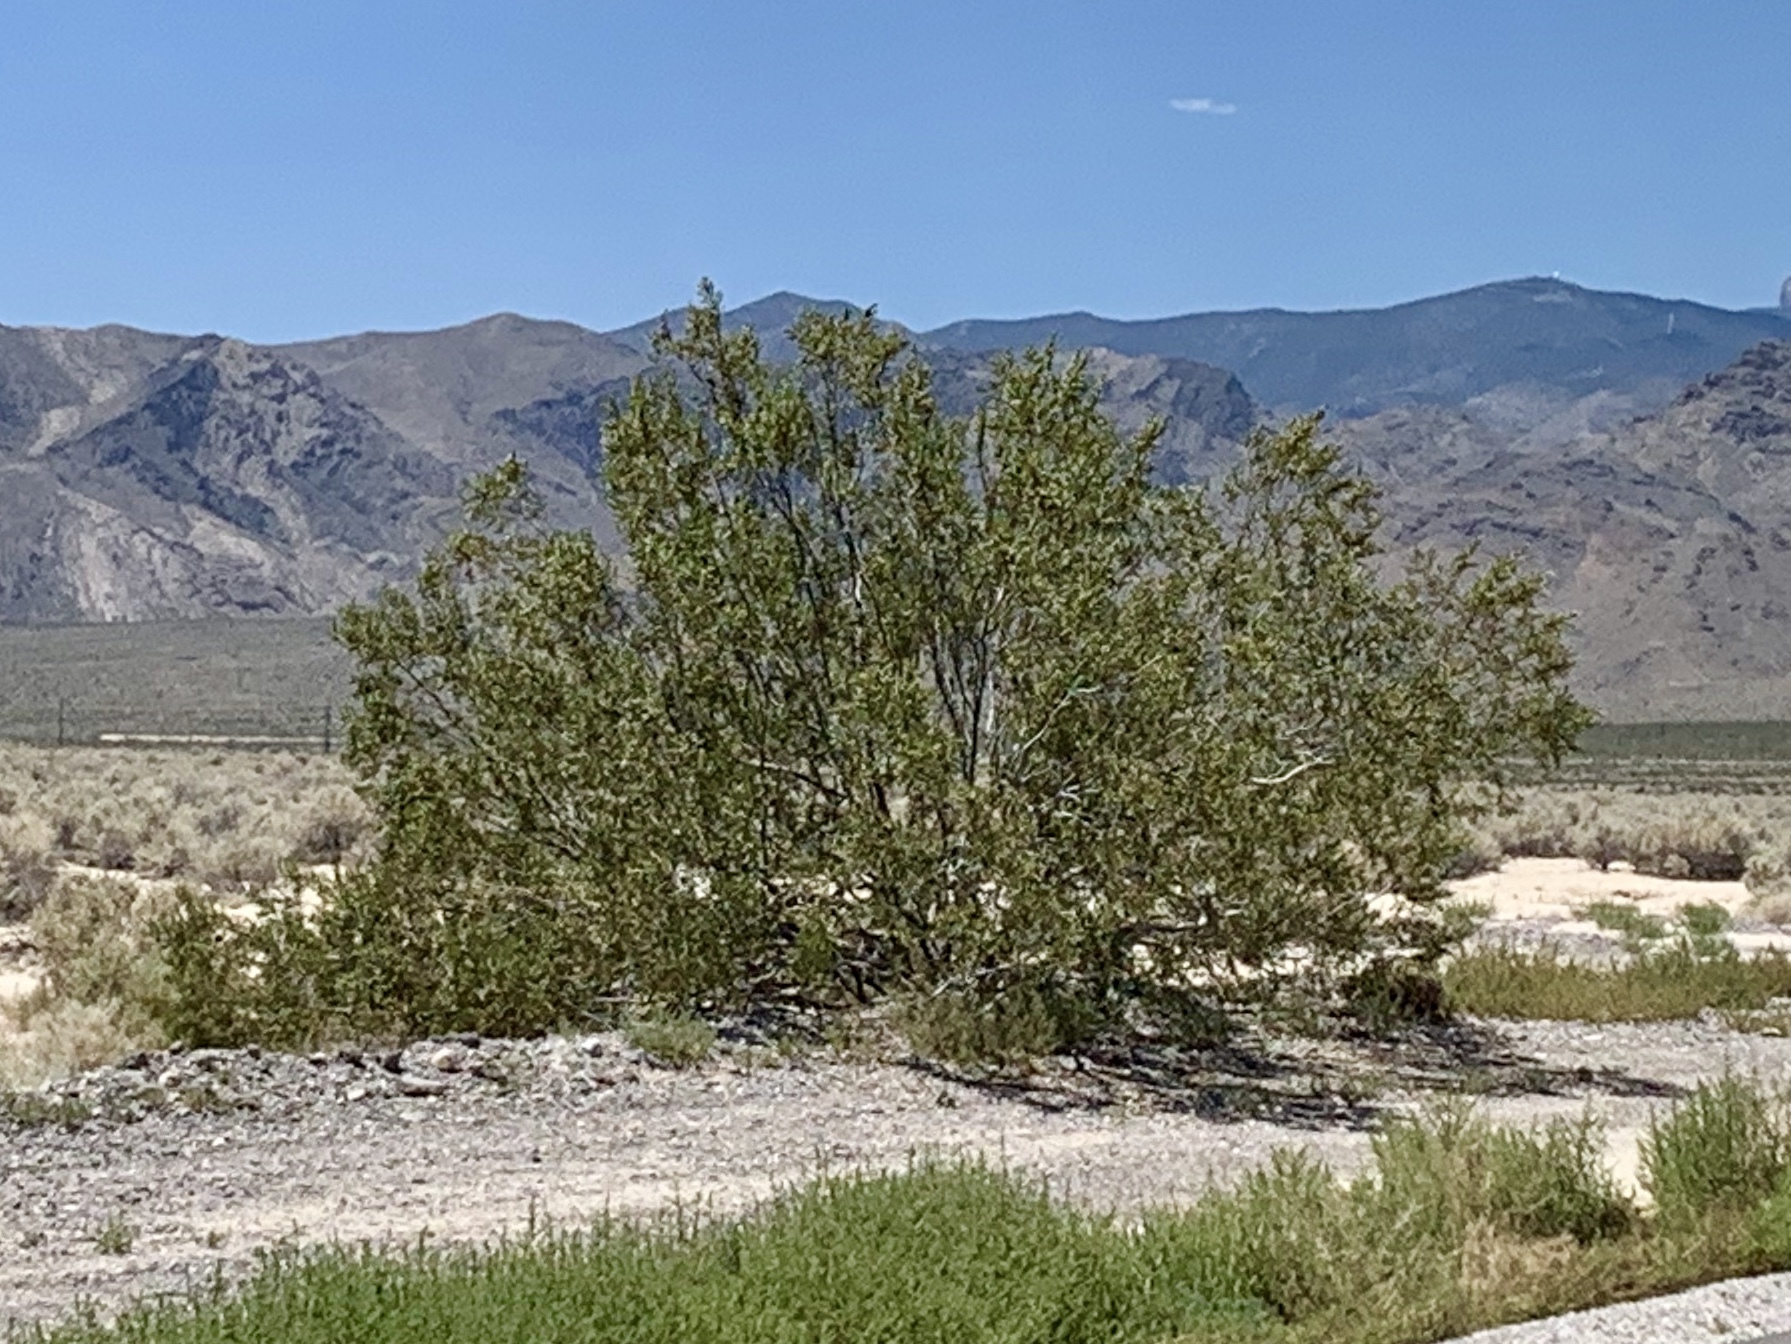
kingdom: Plantae
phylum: Tracheophyta
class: Magnoliopsida
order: Zygophyllales
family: Zygophyllaceae
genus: Larrea
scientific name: Larrea tridentata
